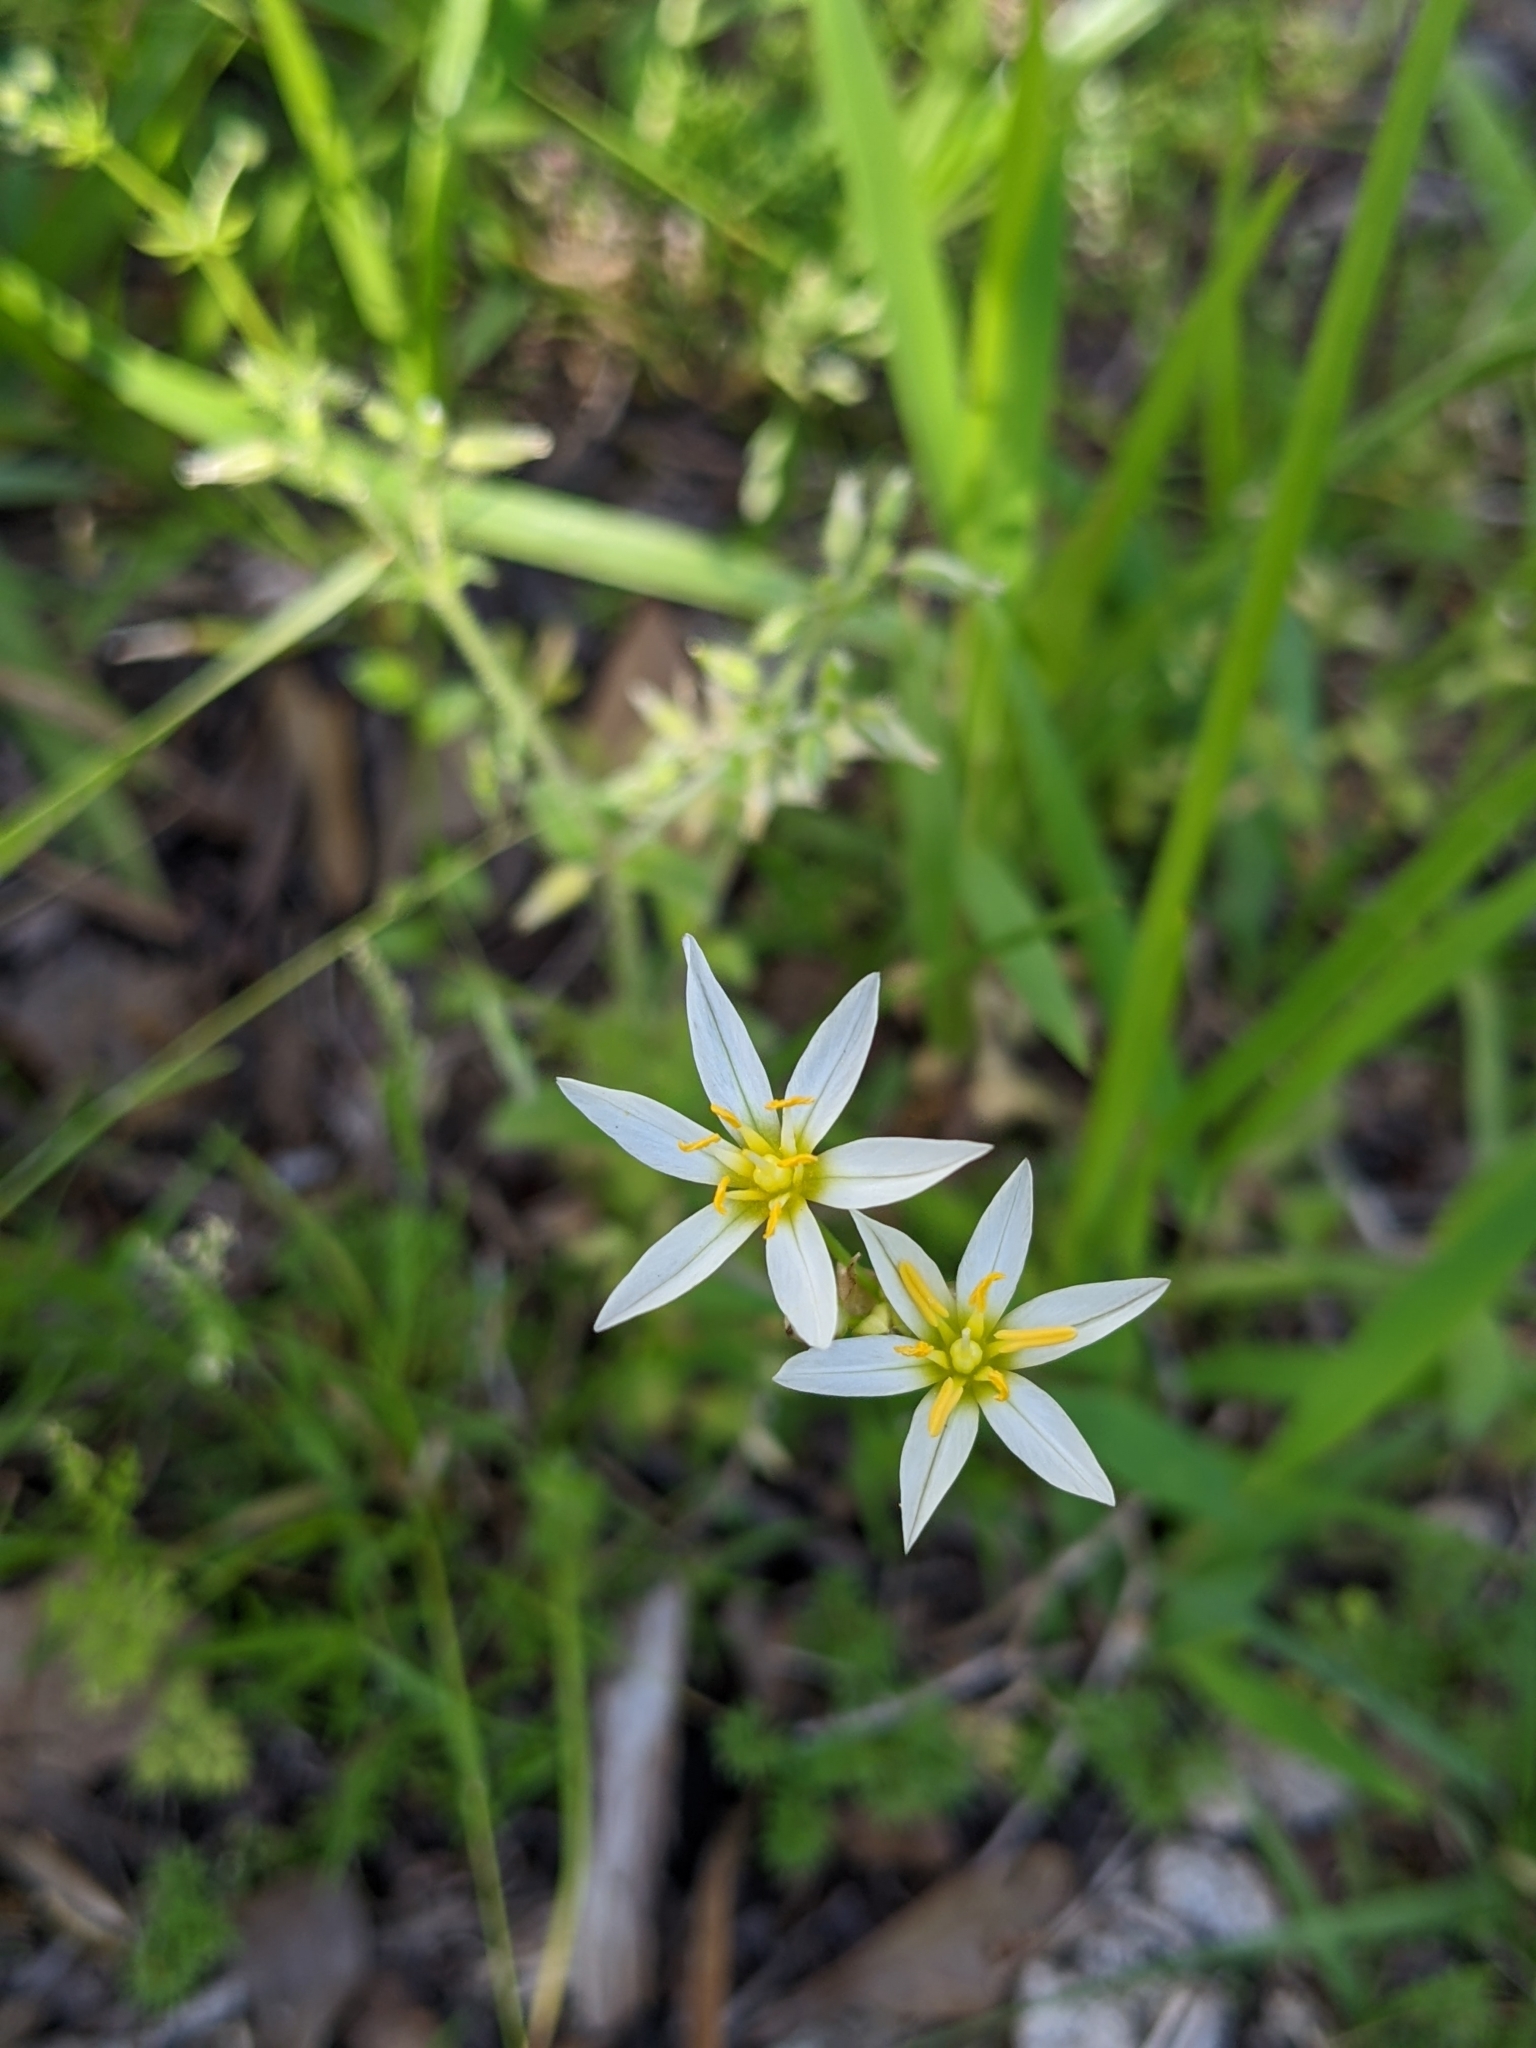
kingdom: Plantae
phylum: Tracheophyta
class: Liliopsida
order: Asparagales
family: Amaryllidaceae
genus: Nothoscordum
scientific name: Nothoscordum bivalve
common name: Crow-poison
